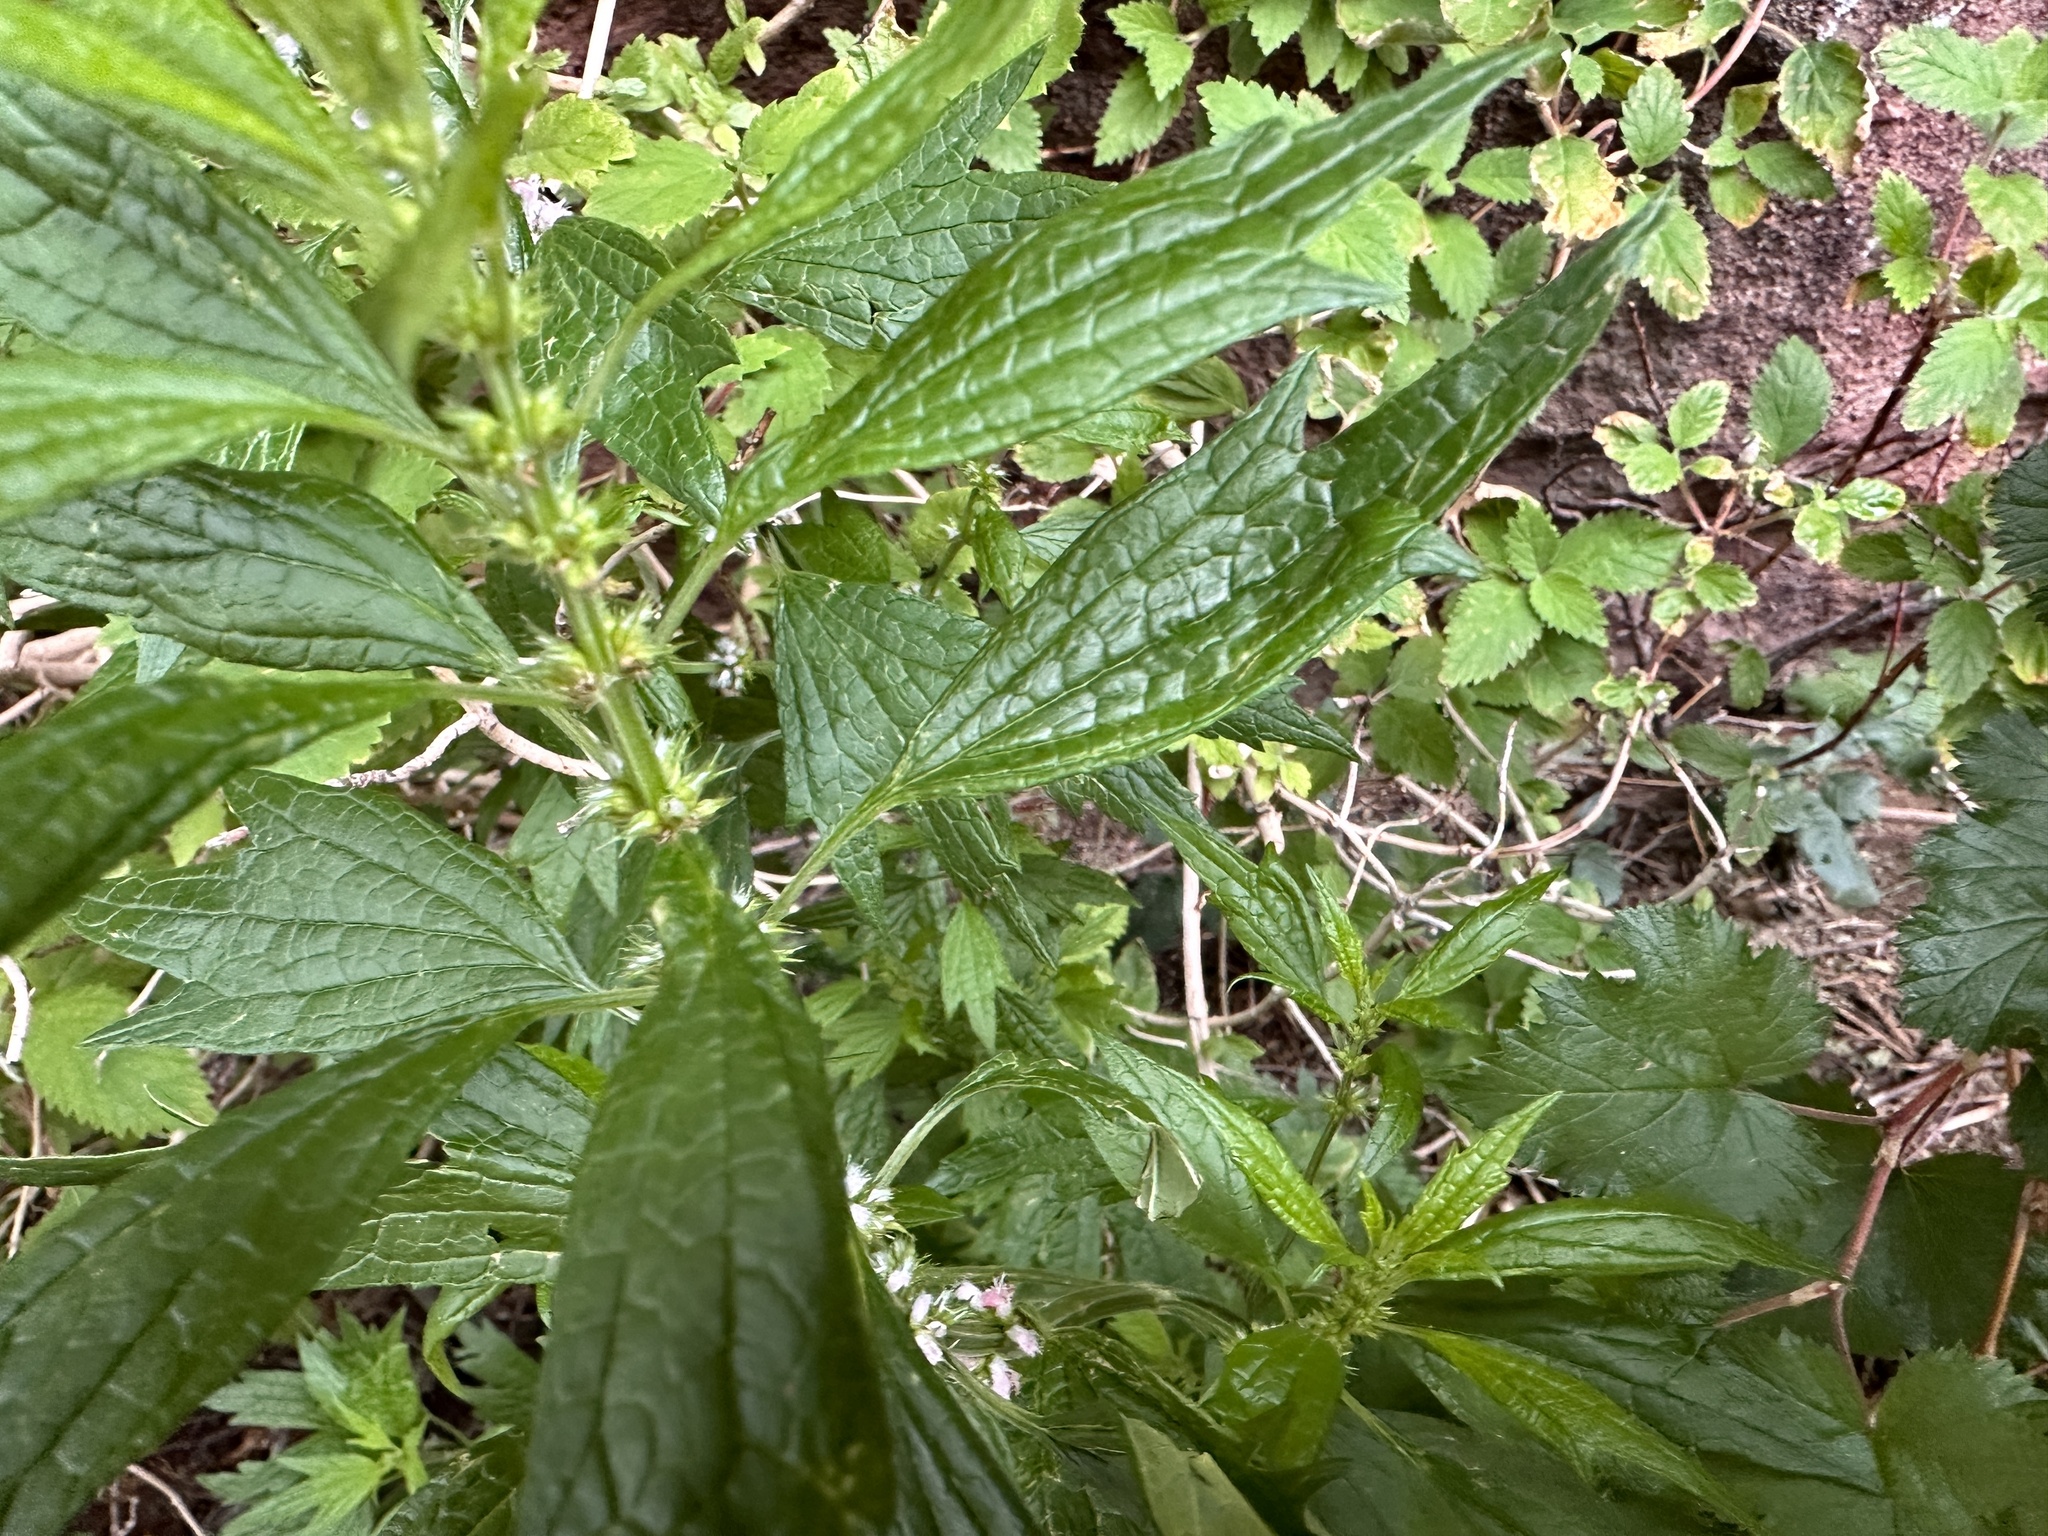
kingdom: Plantae
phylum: Tracheophyta
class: Magnoliopsida
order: Lamiales
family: Lamiaceae
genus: Leonurus
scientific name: Leonurus cardiaca
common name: Motherwort
